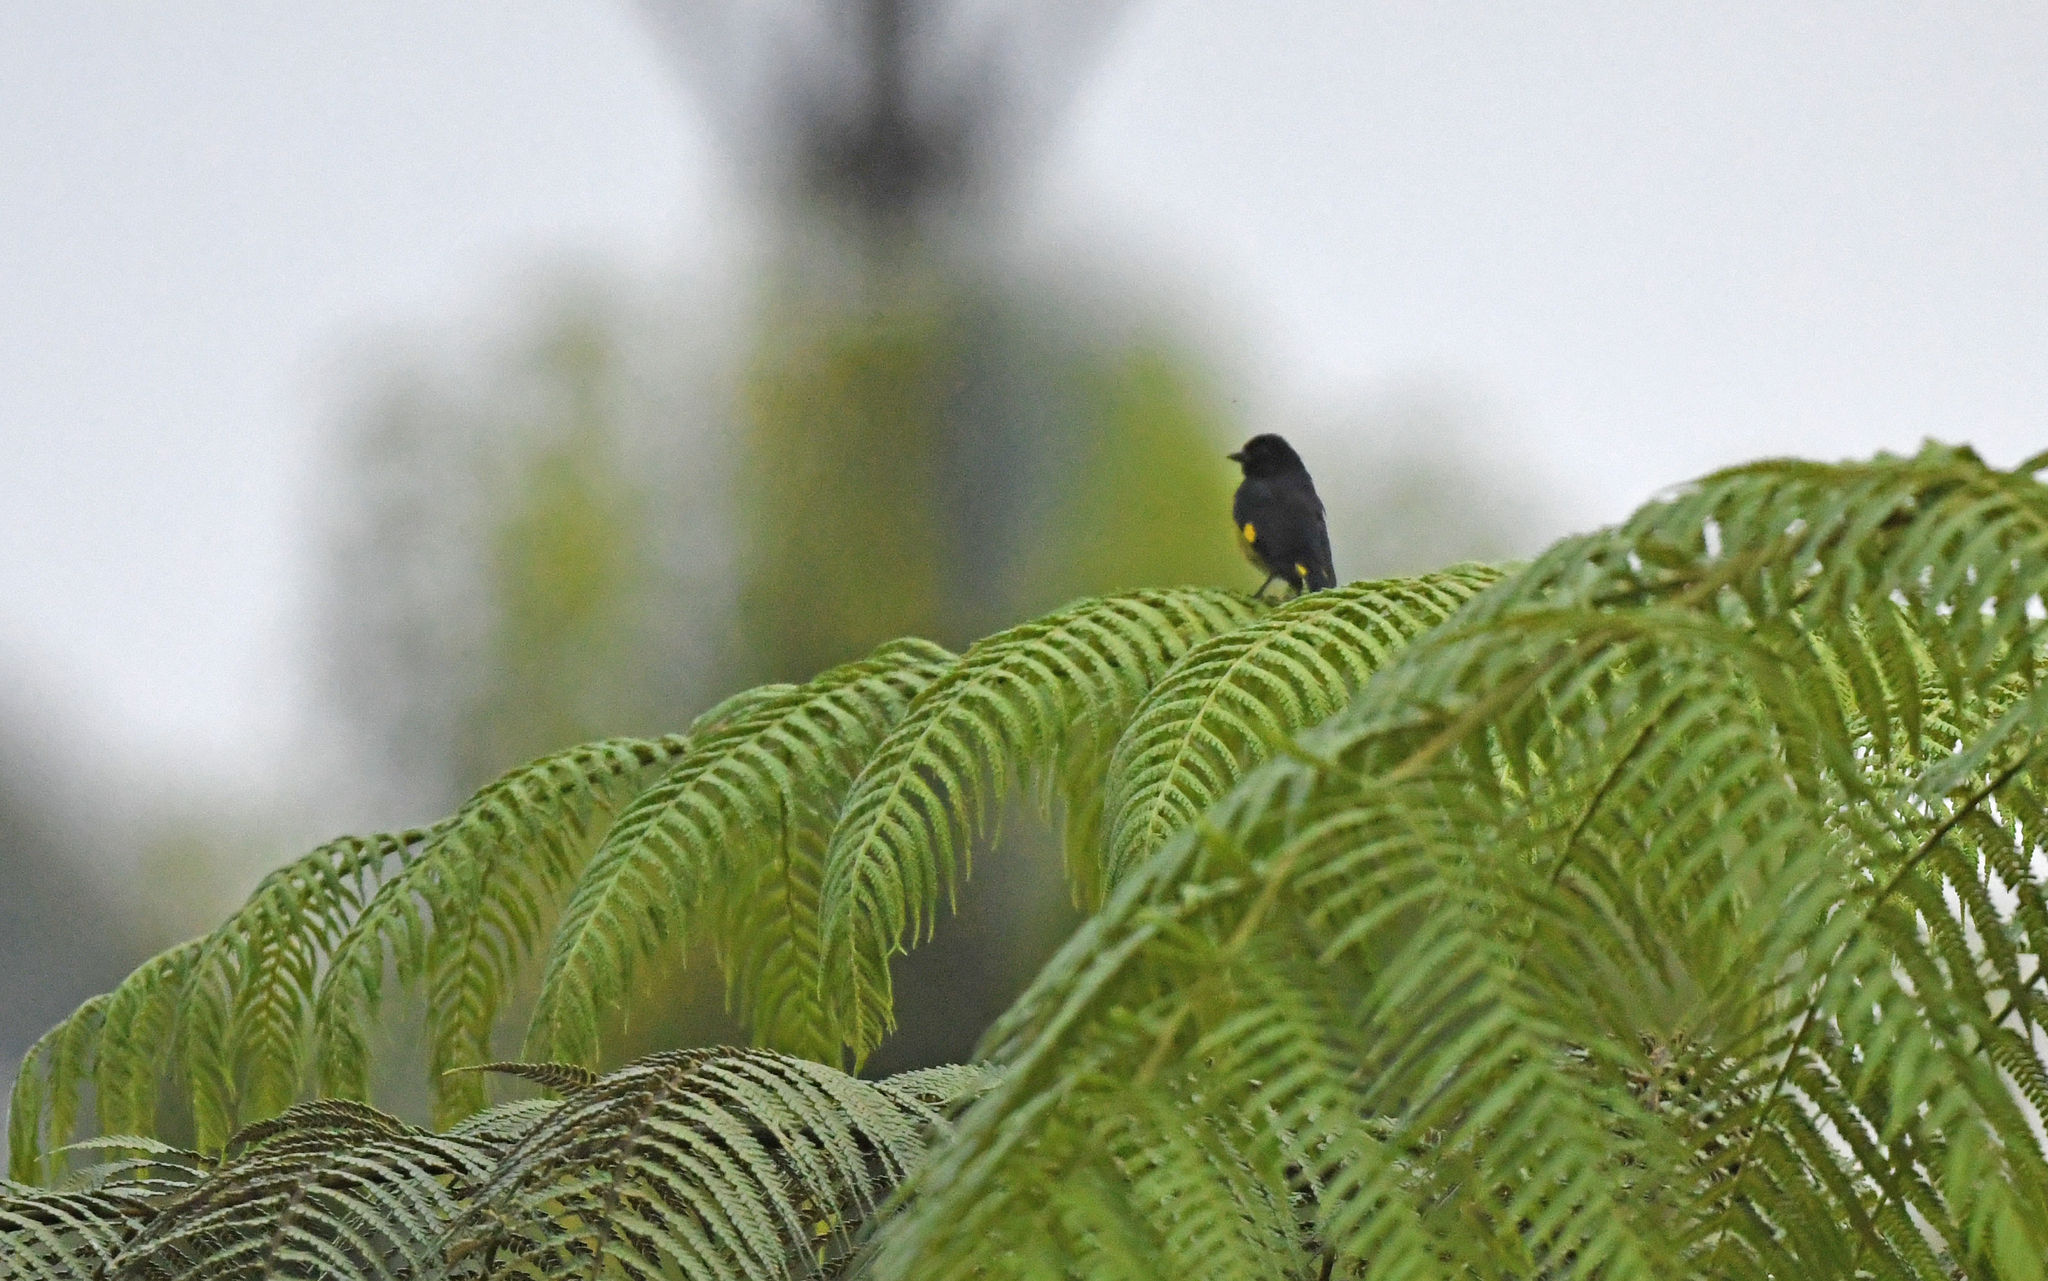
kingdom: Animalia
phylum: Chordata
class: Aves
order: Passeriformes
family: Fringillidae
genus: Spinus
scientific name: Spinus xanthogastrus
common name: Yellow-bellied siskin
